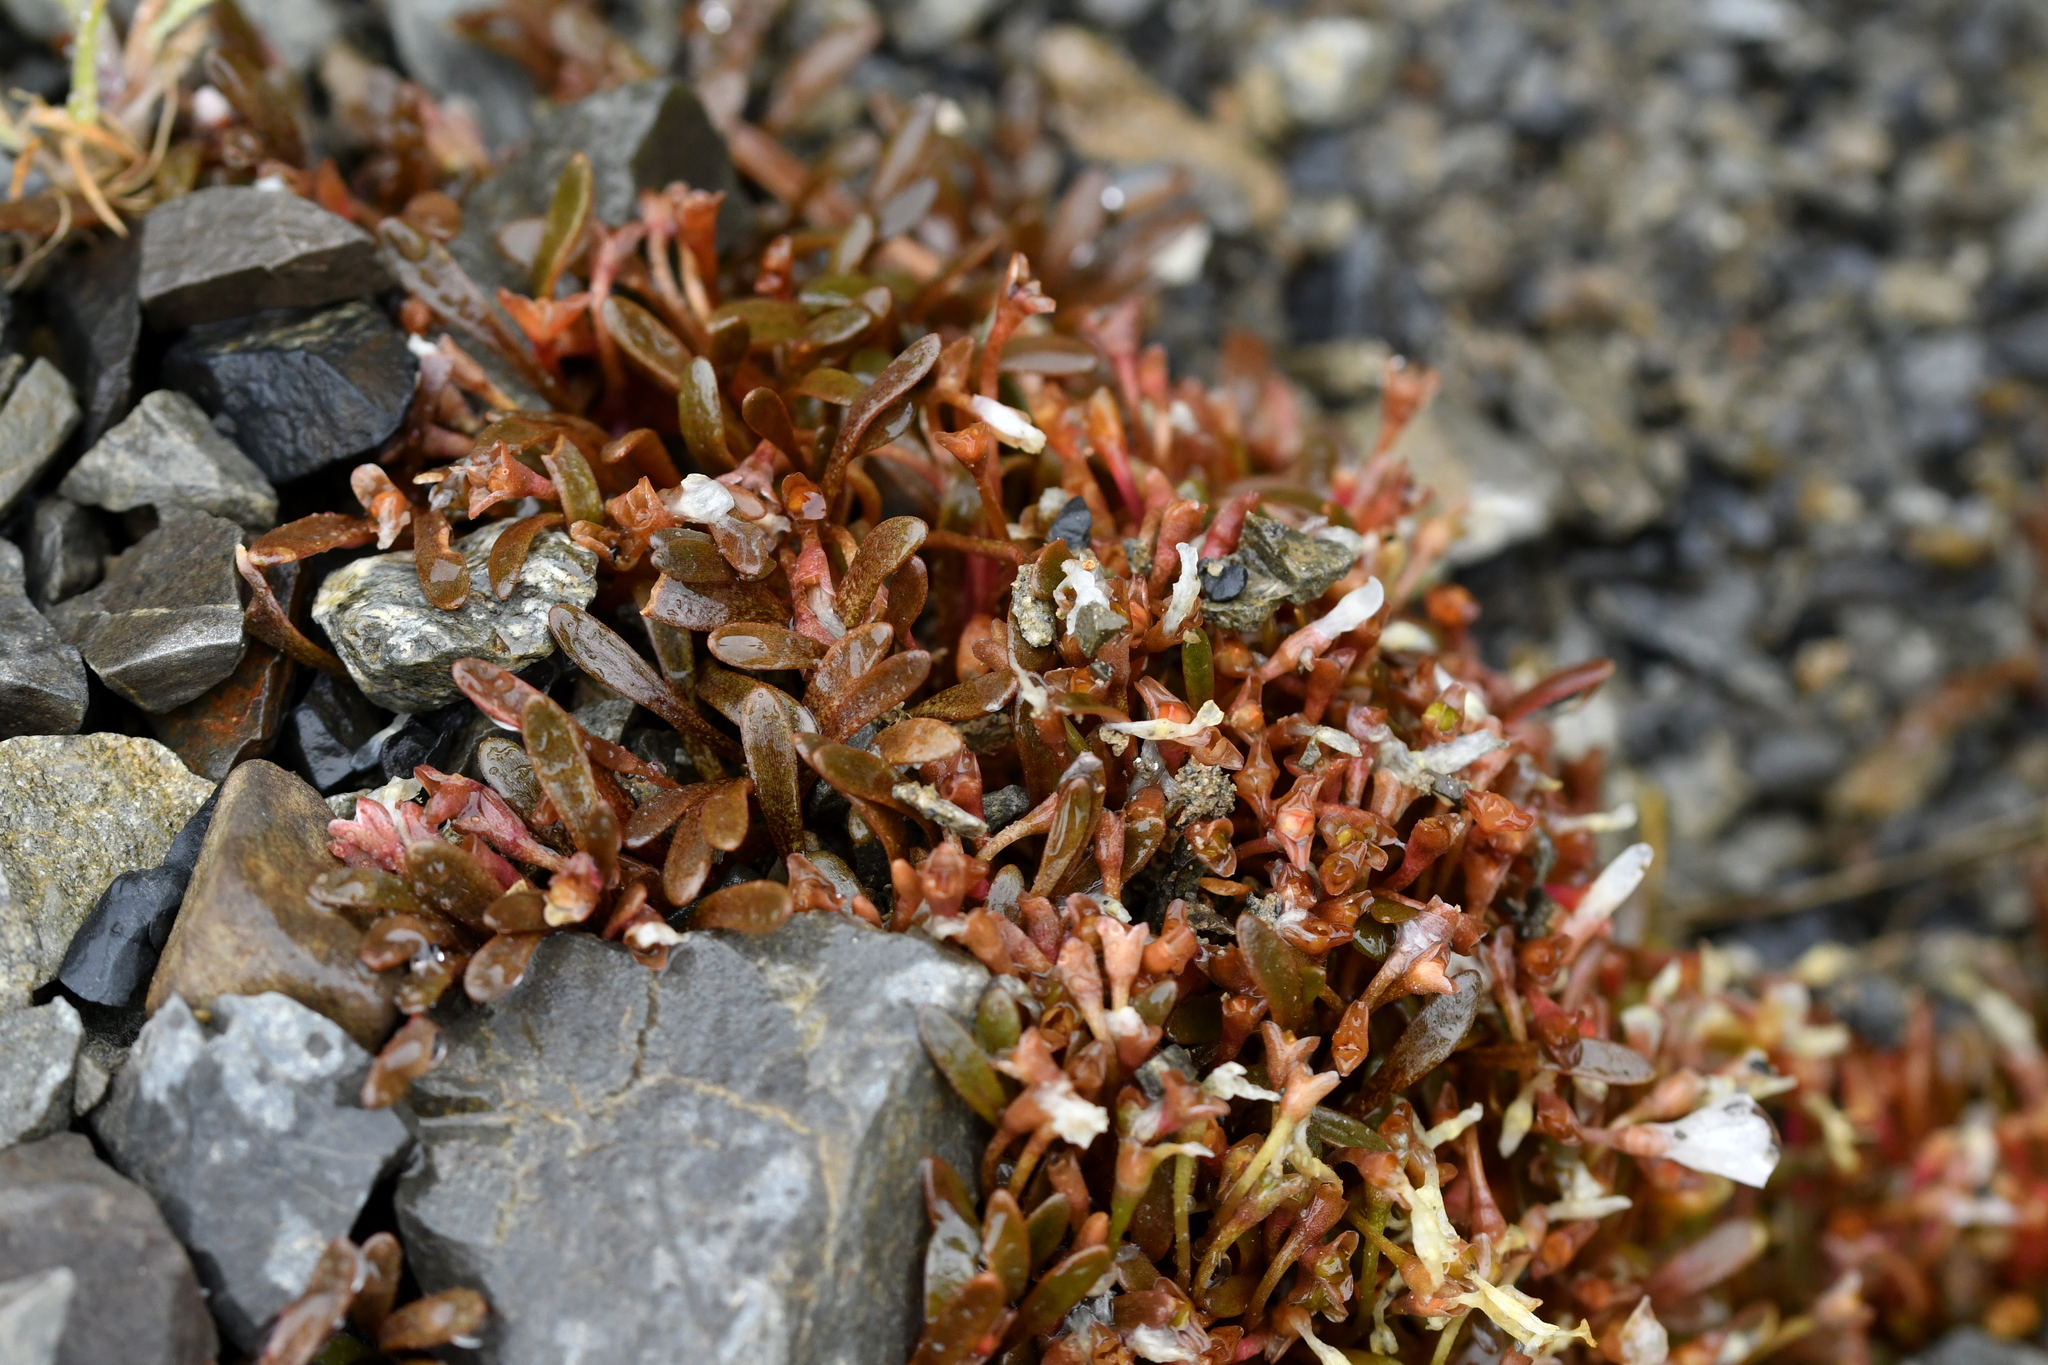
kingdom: Plantae
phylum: Tracheophyta
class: Magnoliopsida
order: Caryophyllales
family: Montiaceae
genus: Montia
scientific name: Montia erythrophylla
